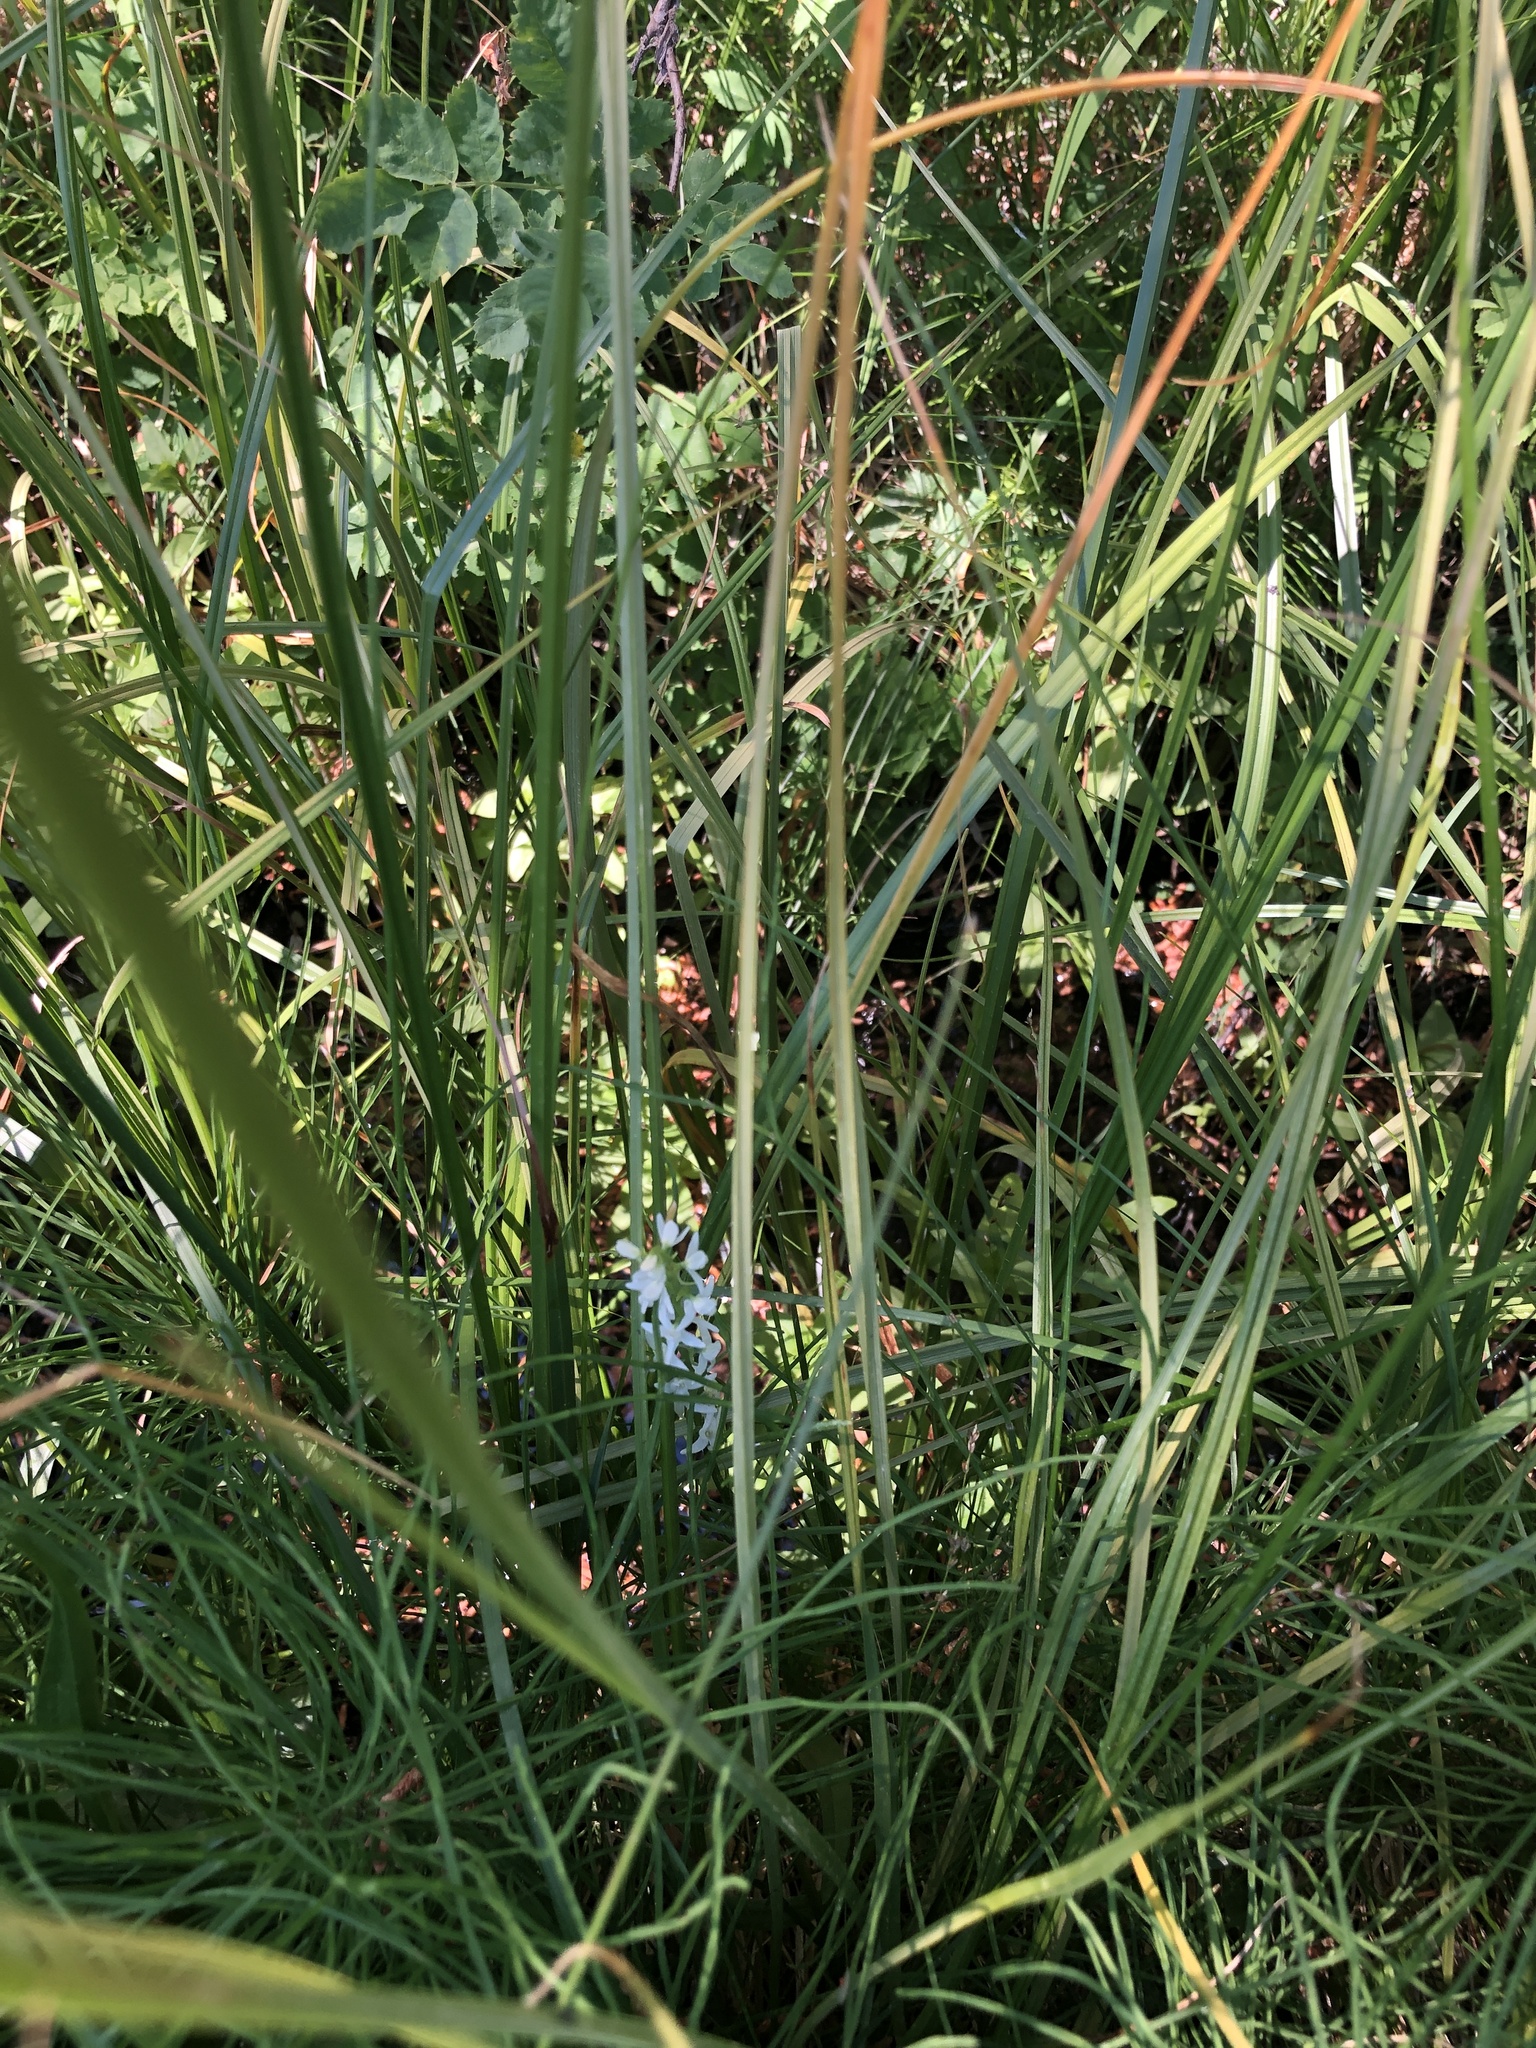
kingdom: Plantae
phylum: Tracheophyta
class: Liliopsida
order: Asparagales
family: Orchidaceae
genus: Platanthera
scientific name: Platanthera dilatata
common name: Bog candles
